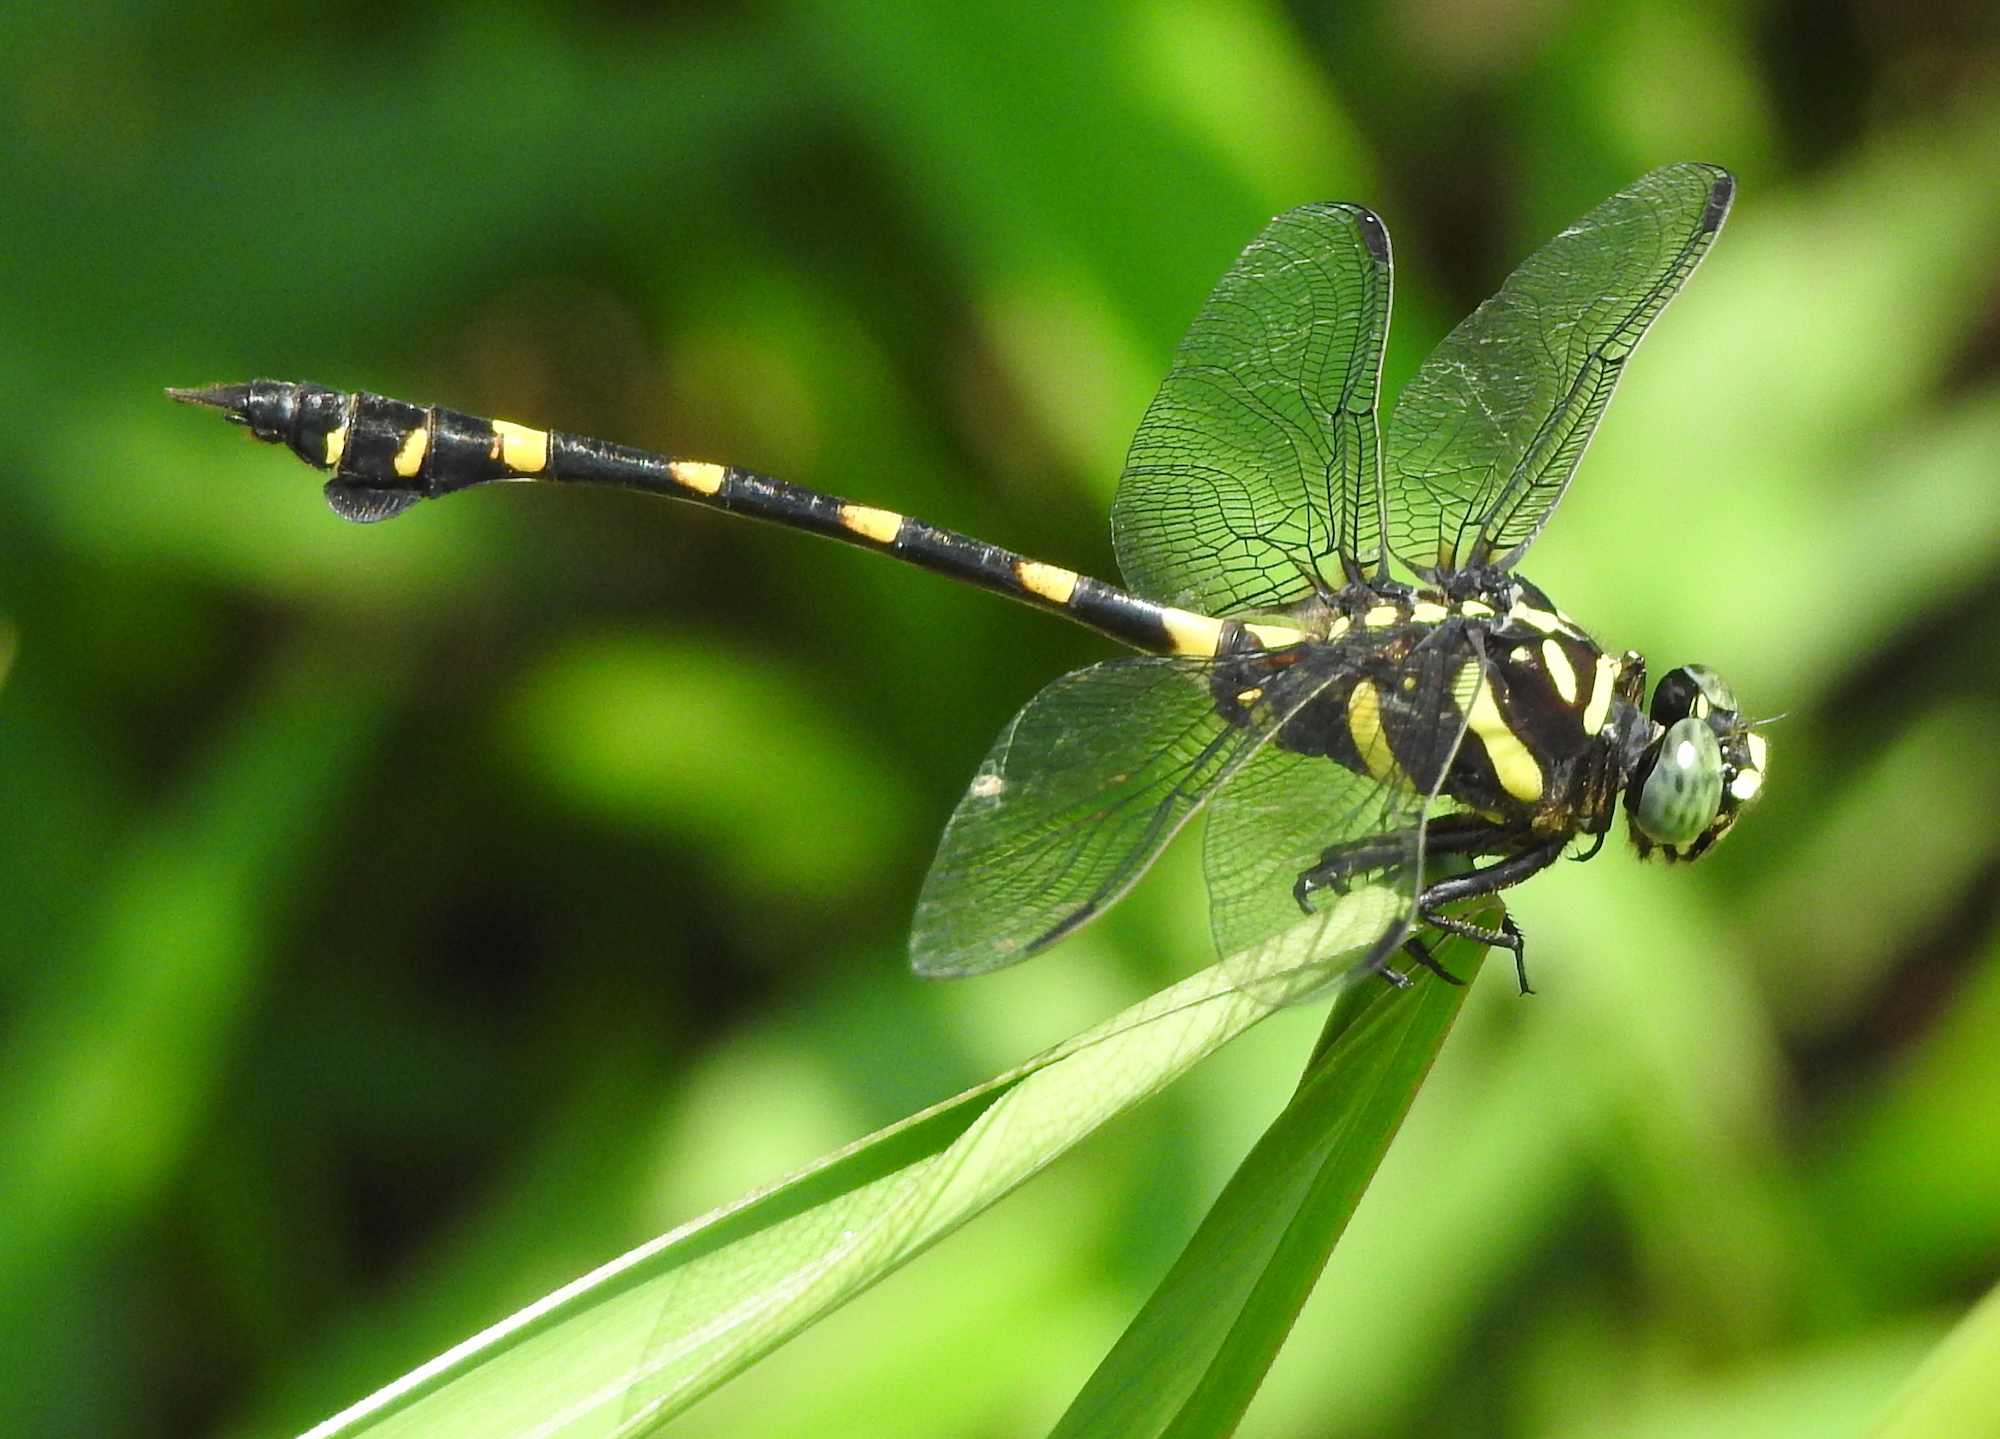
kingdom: Animalia
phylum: Arthropoda
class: Insecta
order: Odonata
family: Gomphidae
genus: Ictinogomphus
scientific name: Ictinogomphus decoratus
